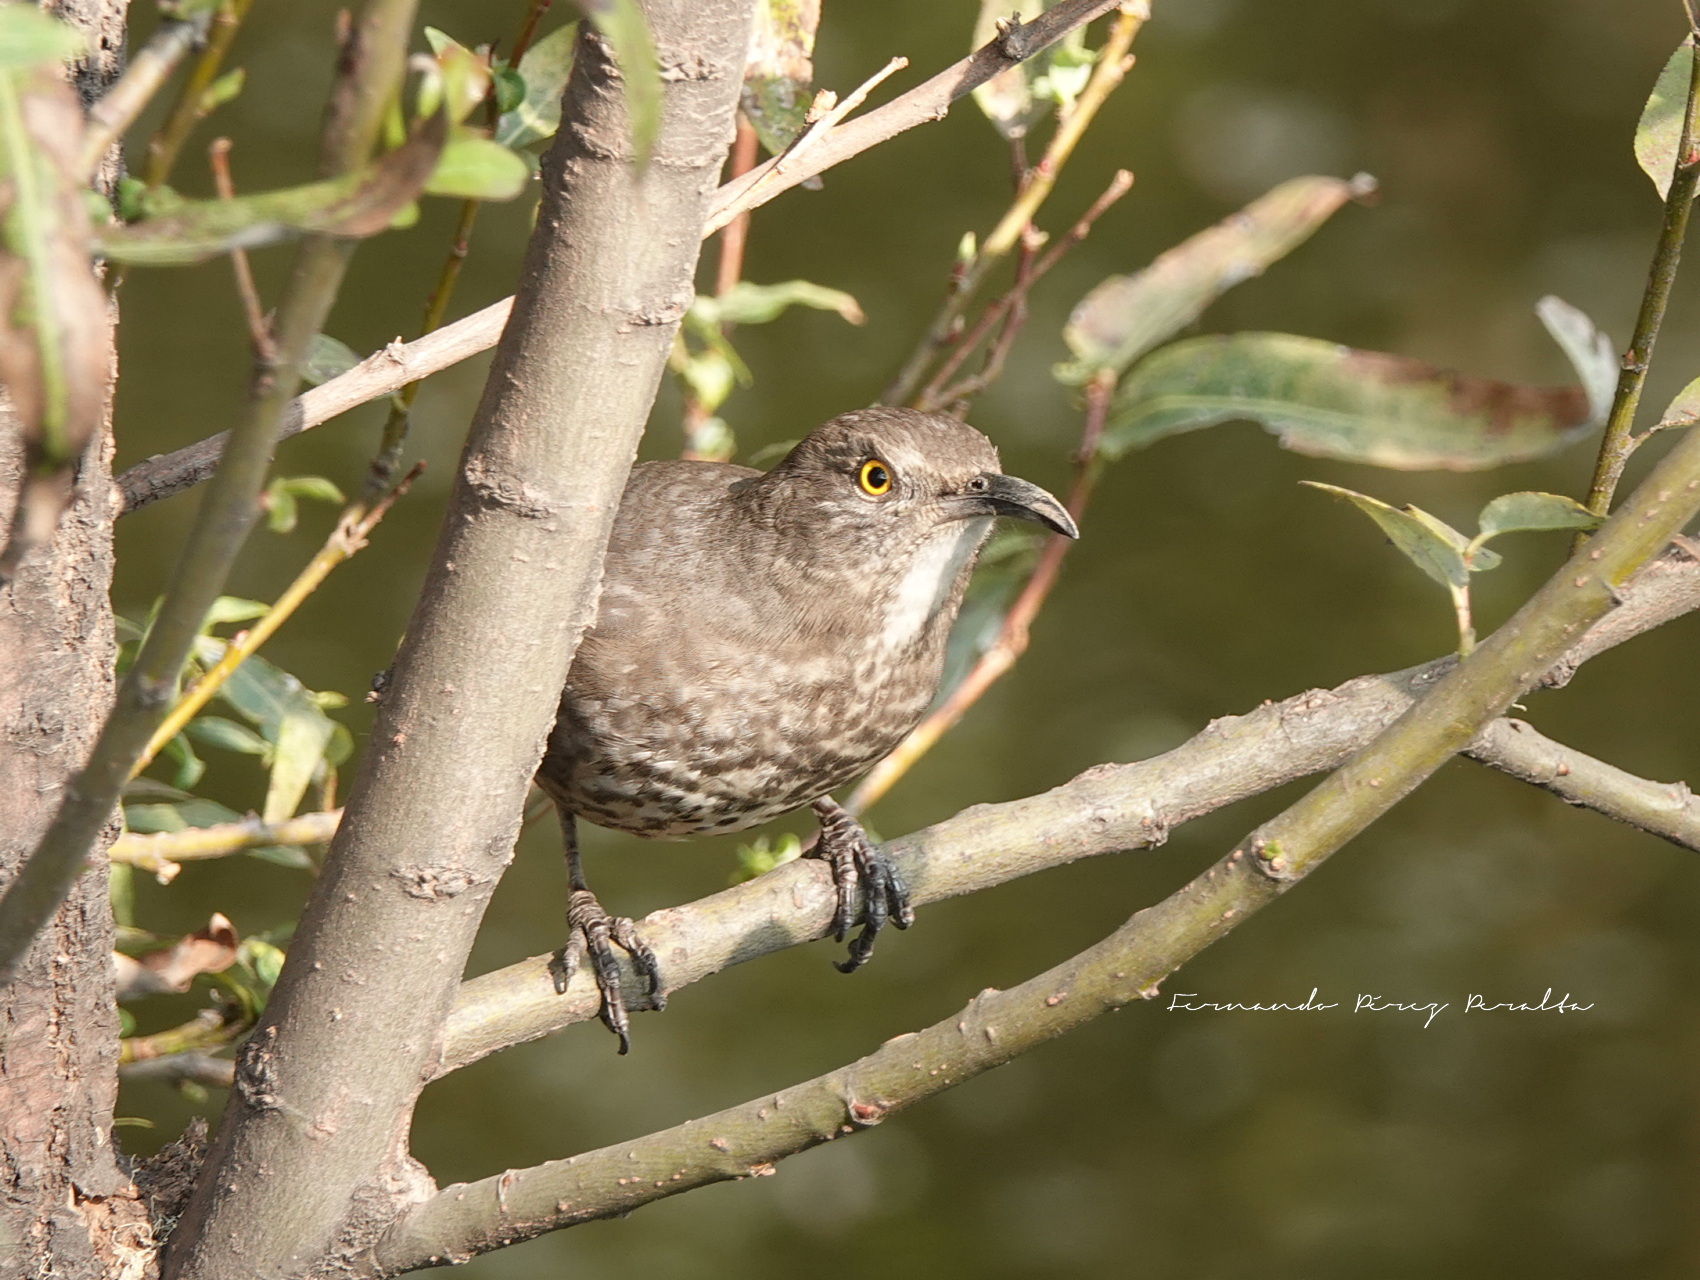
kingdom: Animalia
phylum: Chordata
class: Aves
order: Passeriformes
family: Mimidae
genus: Toxostoma
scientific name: Toxostoma curvirostre
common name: Curve-billed thrasher
